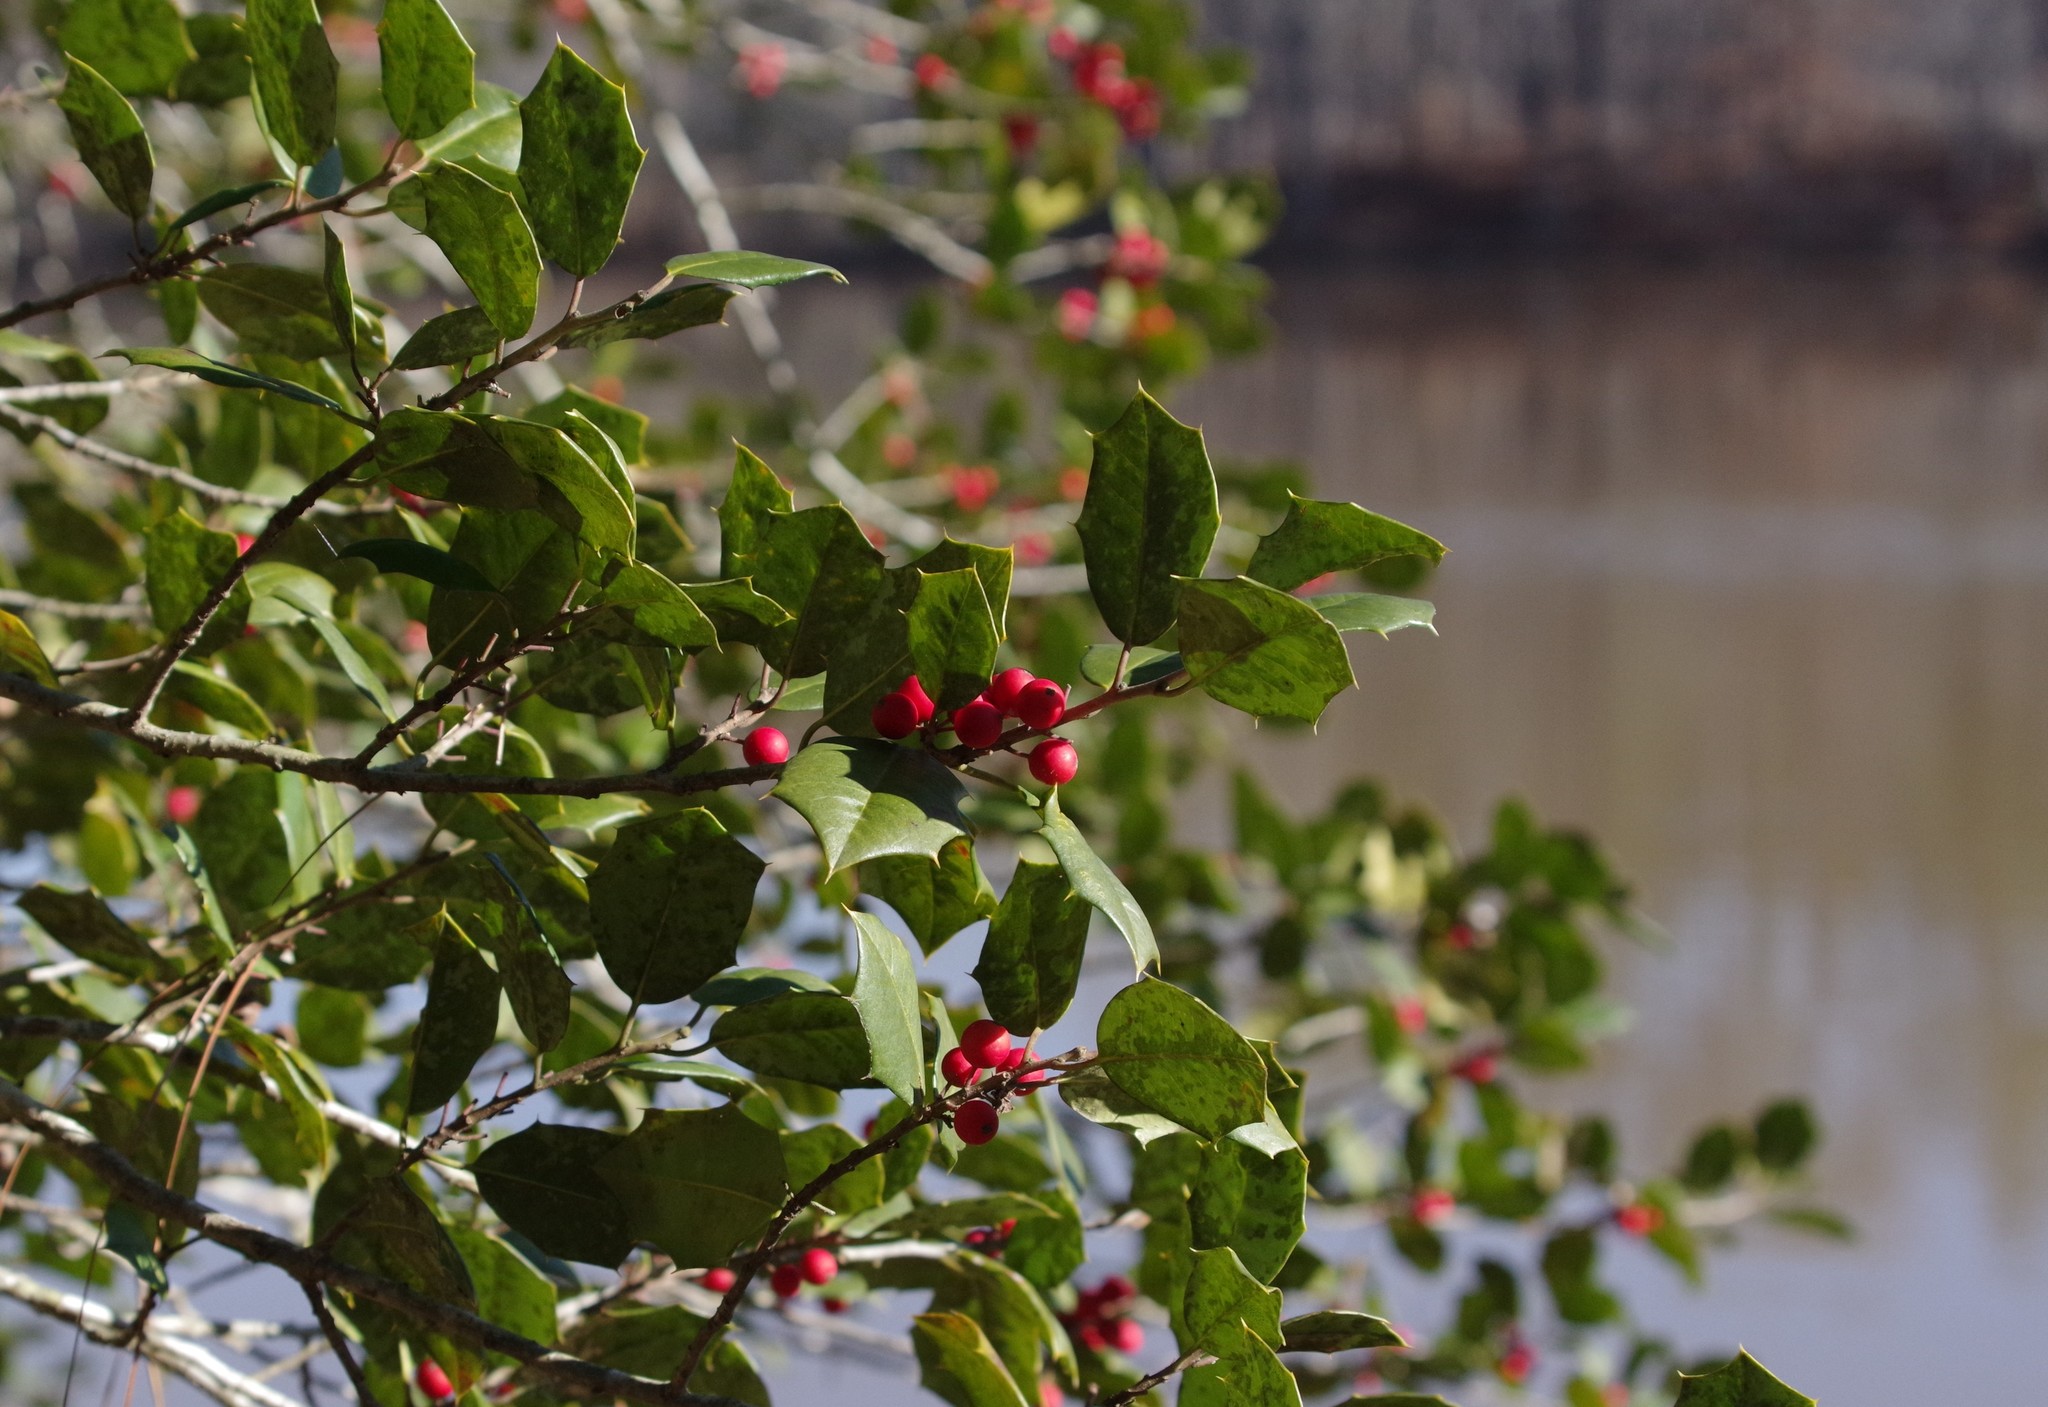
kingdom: Plantae
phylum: Tracheophyta
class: Magnoliopsida
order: Aquifoliales
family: Aquifoliaceae
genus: Ilex
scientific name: Ilex opaca
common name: American holly
